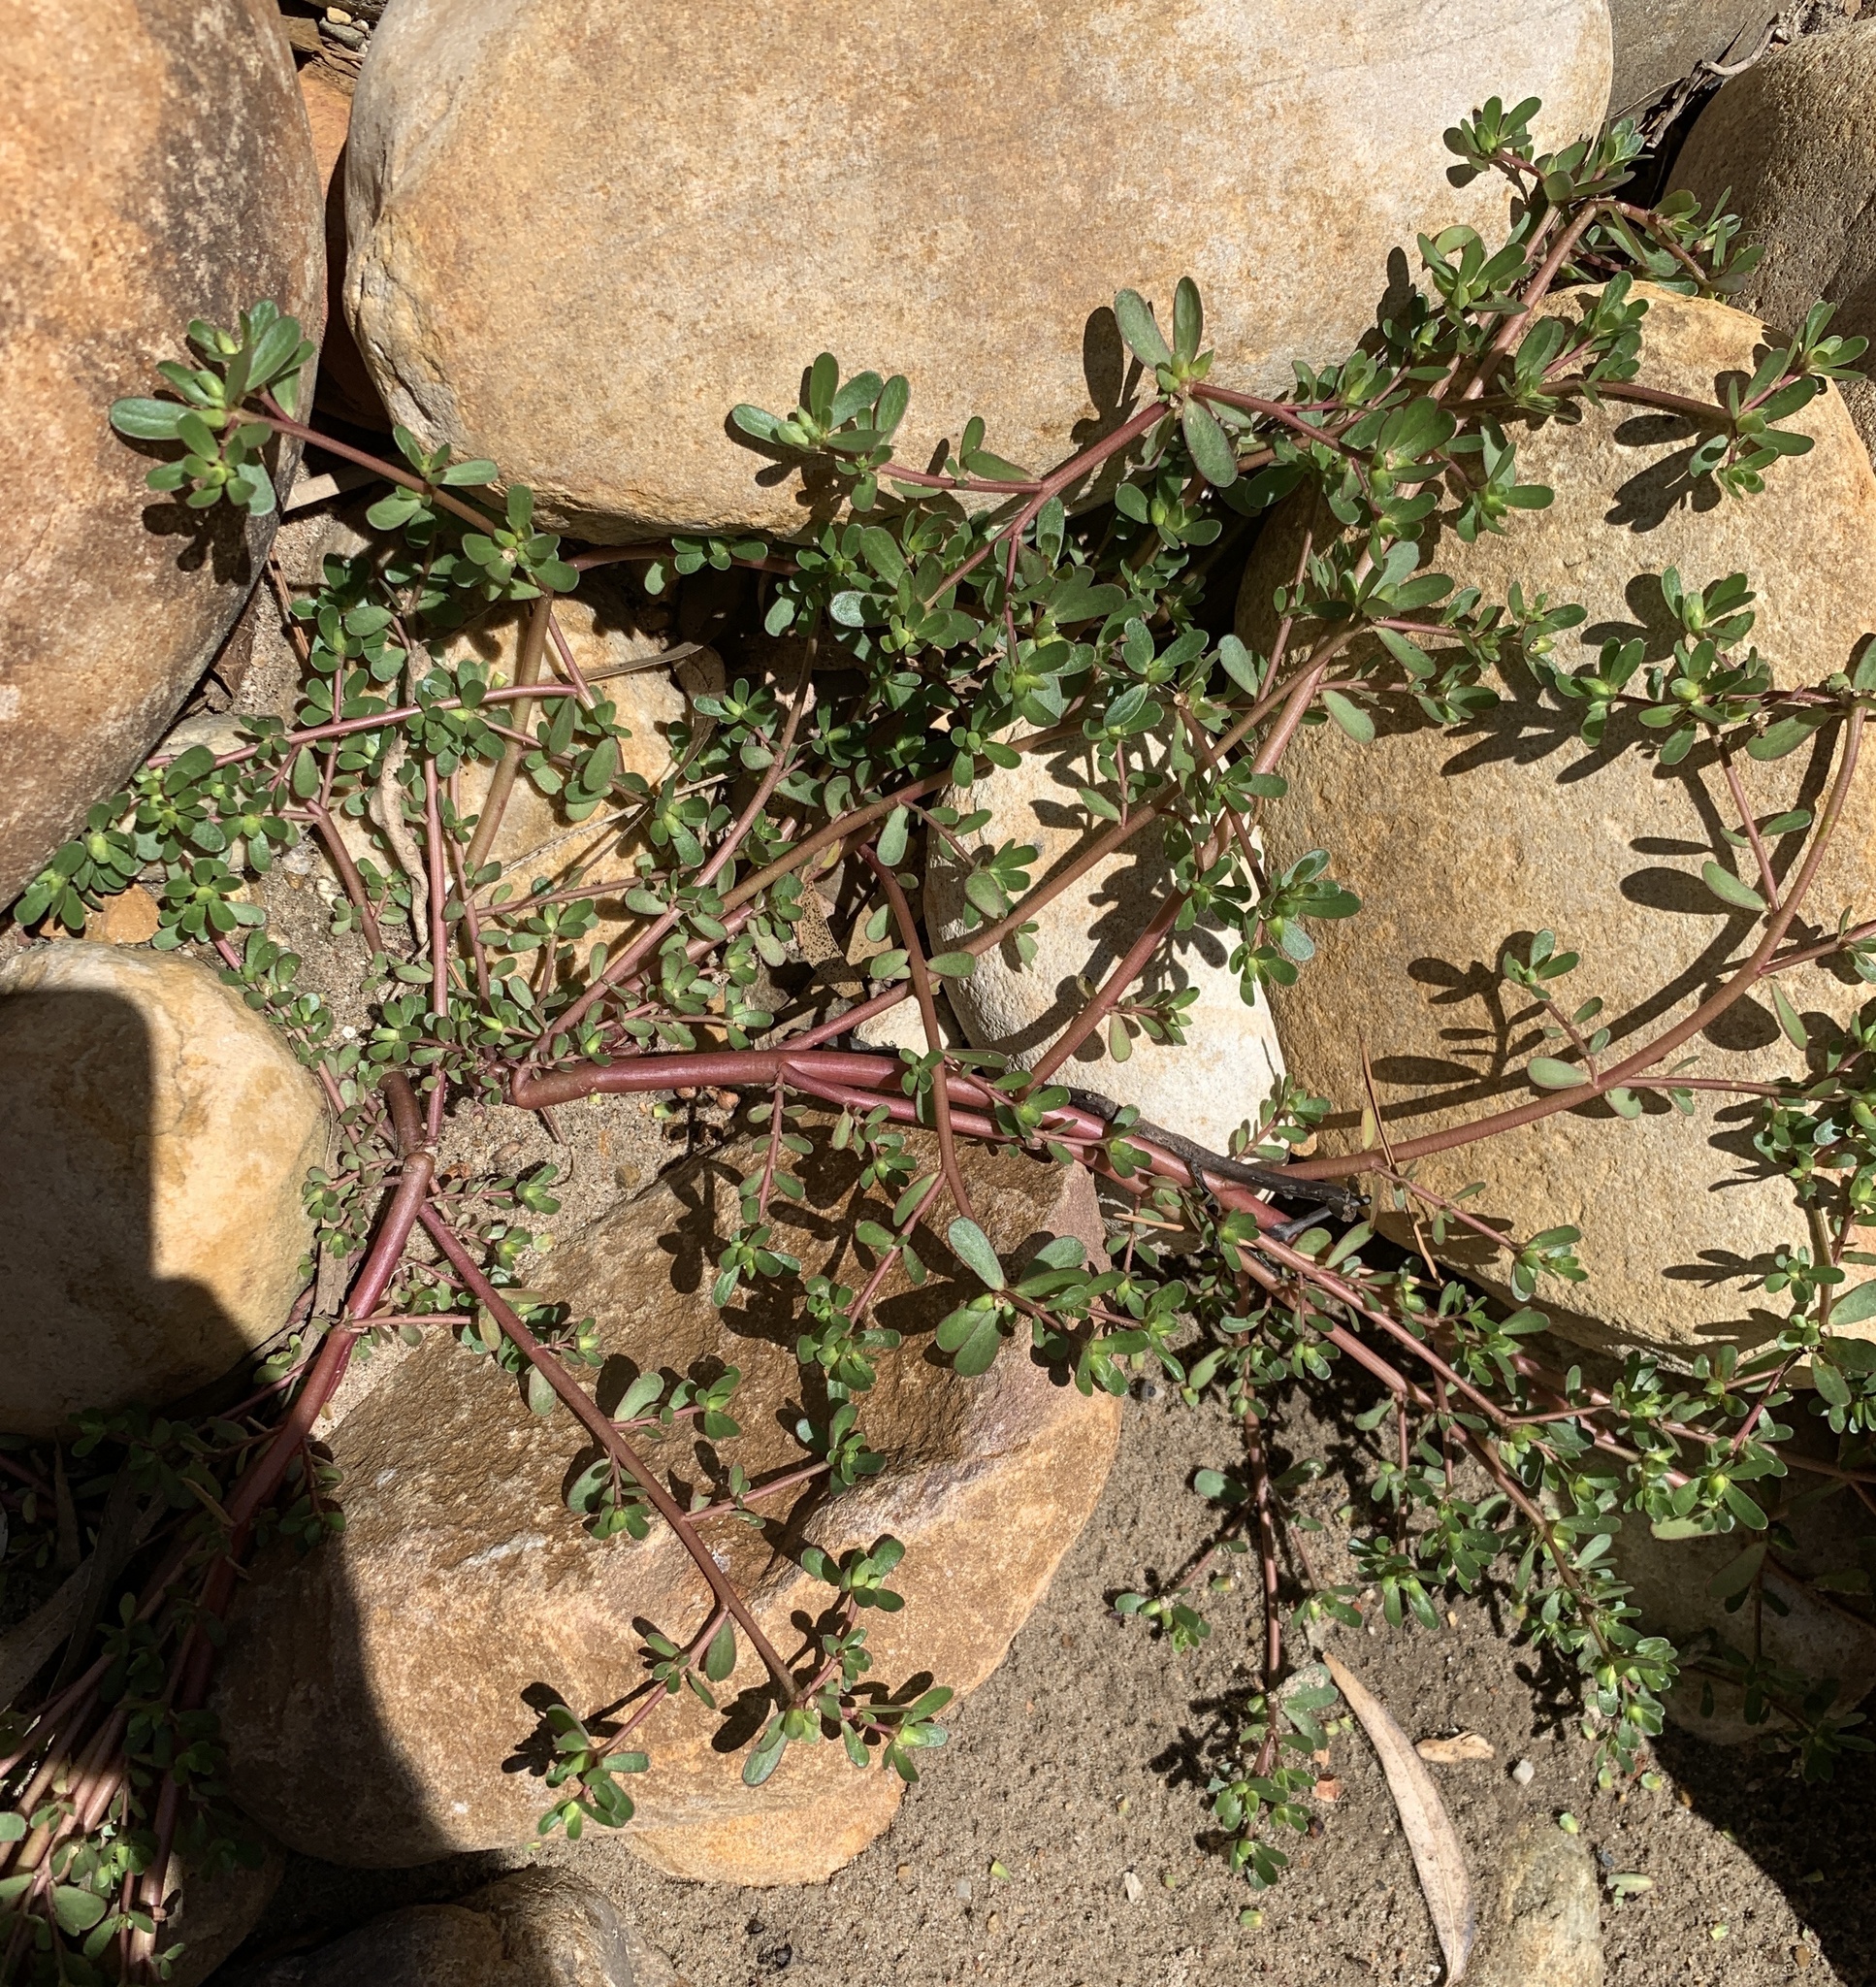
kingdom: Plantae
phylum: Tracheophyta
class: Magnoliopsida
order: Caryophyllales
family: Portulacaceae
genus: Portulaca
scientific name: Portulaca oleracea
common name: Common purslane
